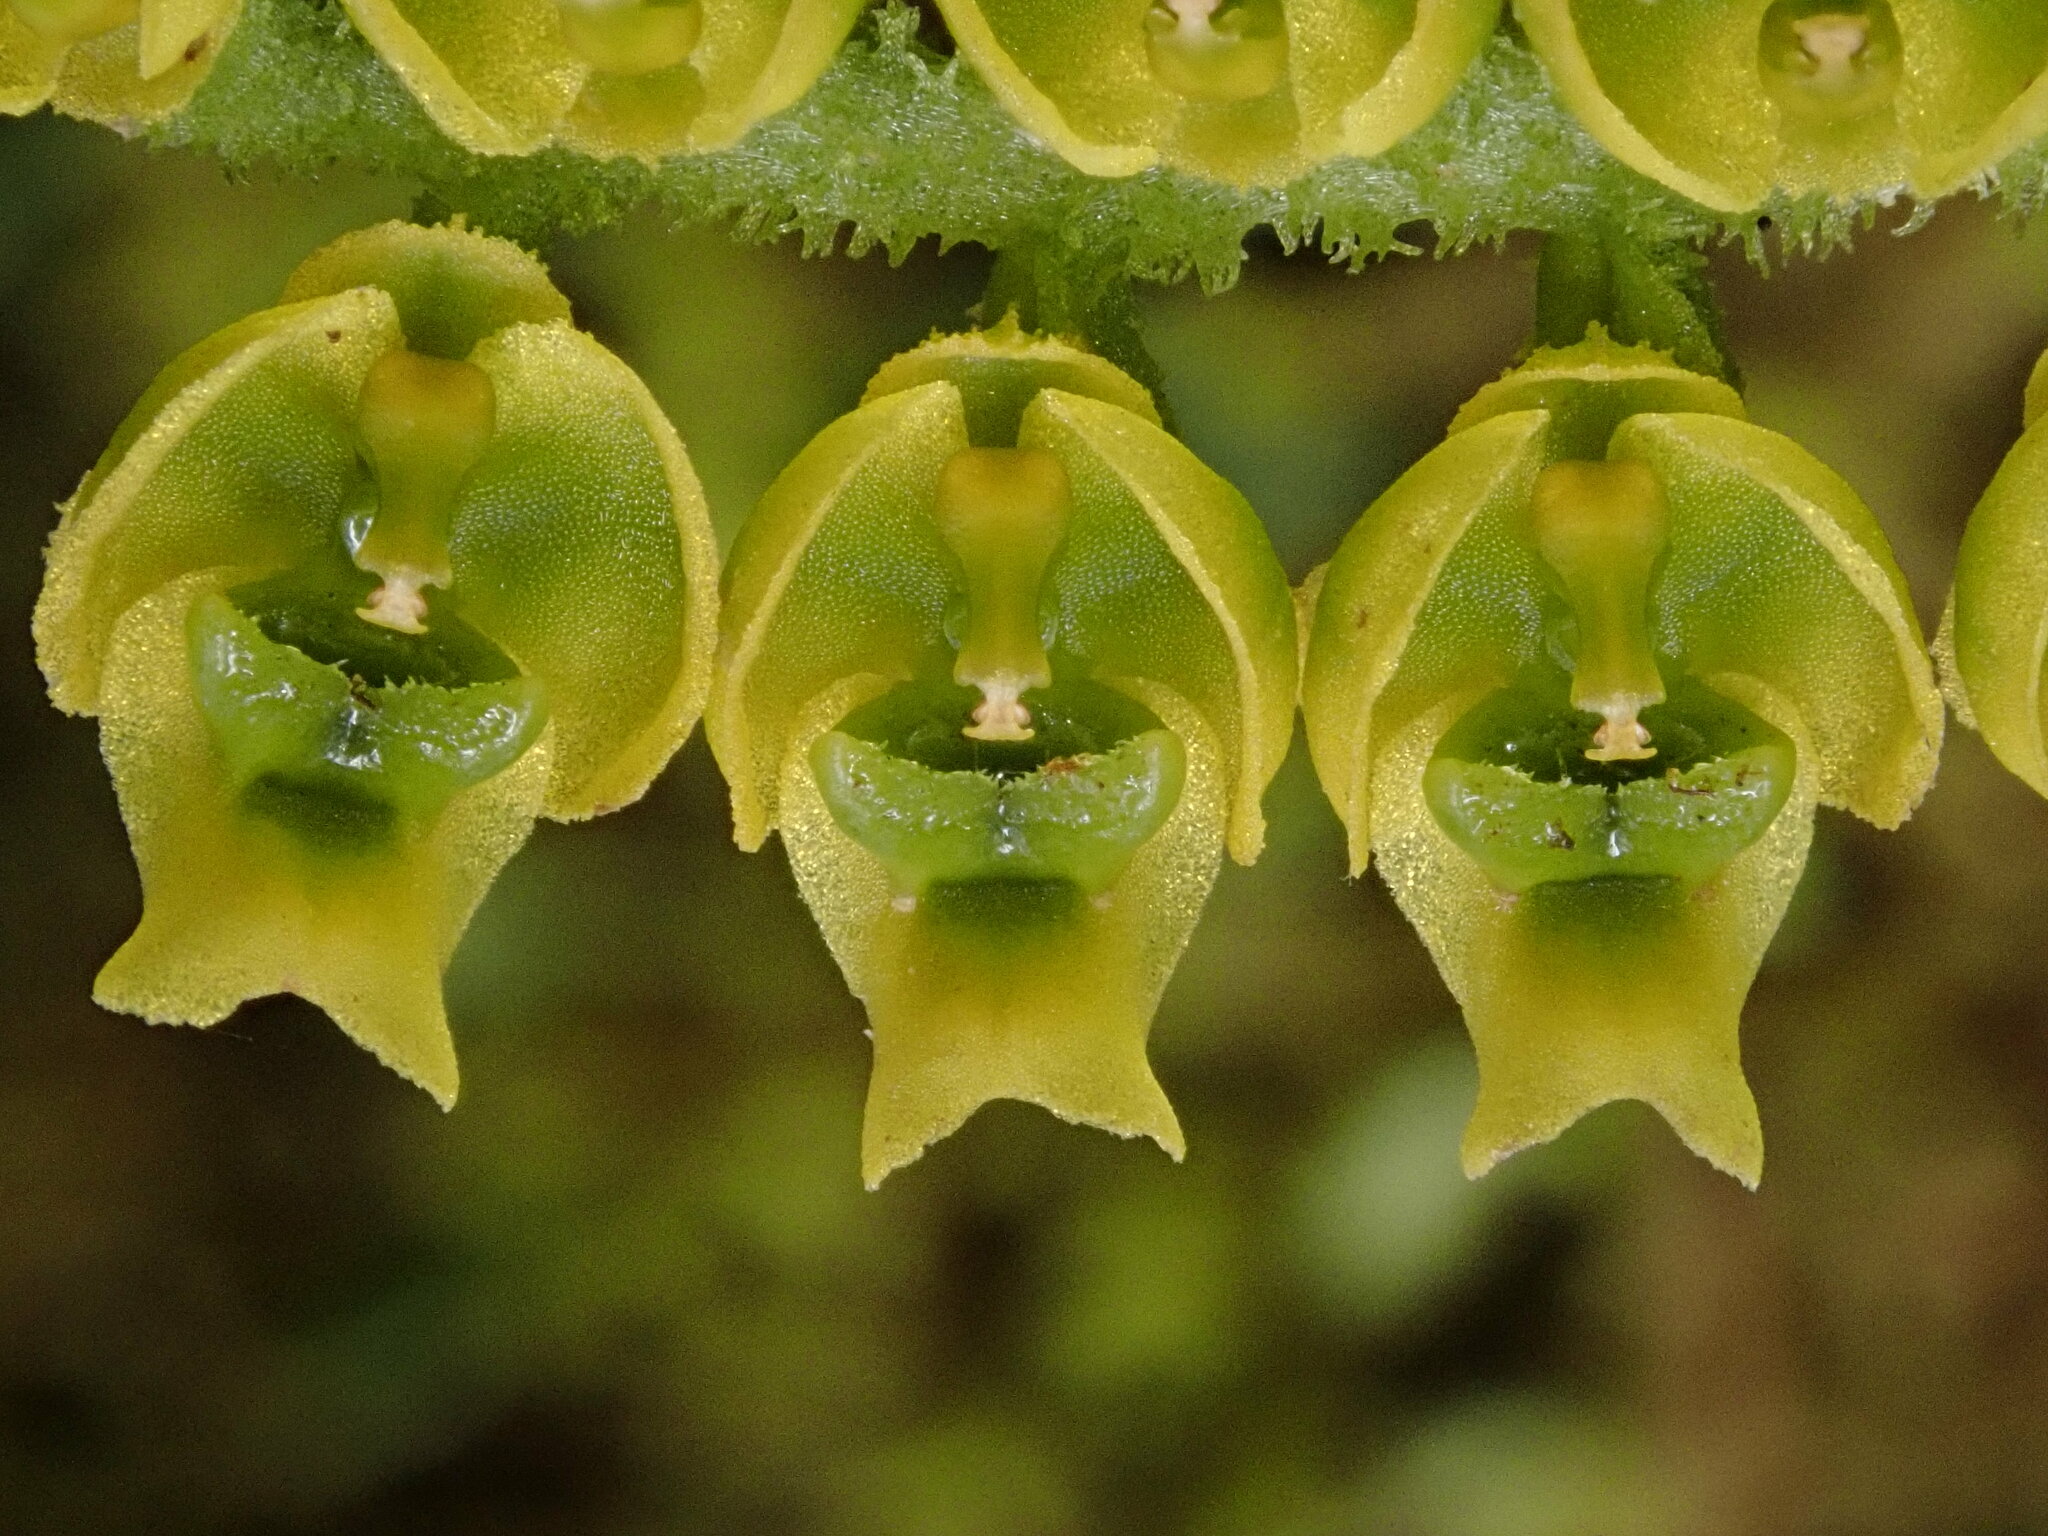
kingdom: Plantae
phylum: Tracheophyta
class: Liliopsida
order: Asparagales
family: Orchidaceae
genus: Ornithocephalus
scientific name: Ornithocephalus ecuadorensis
